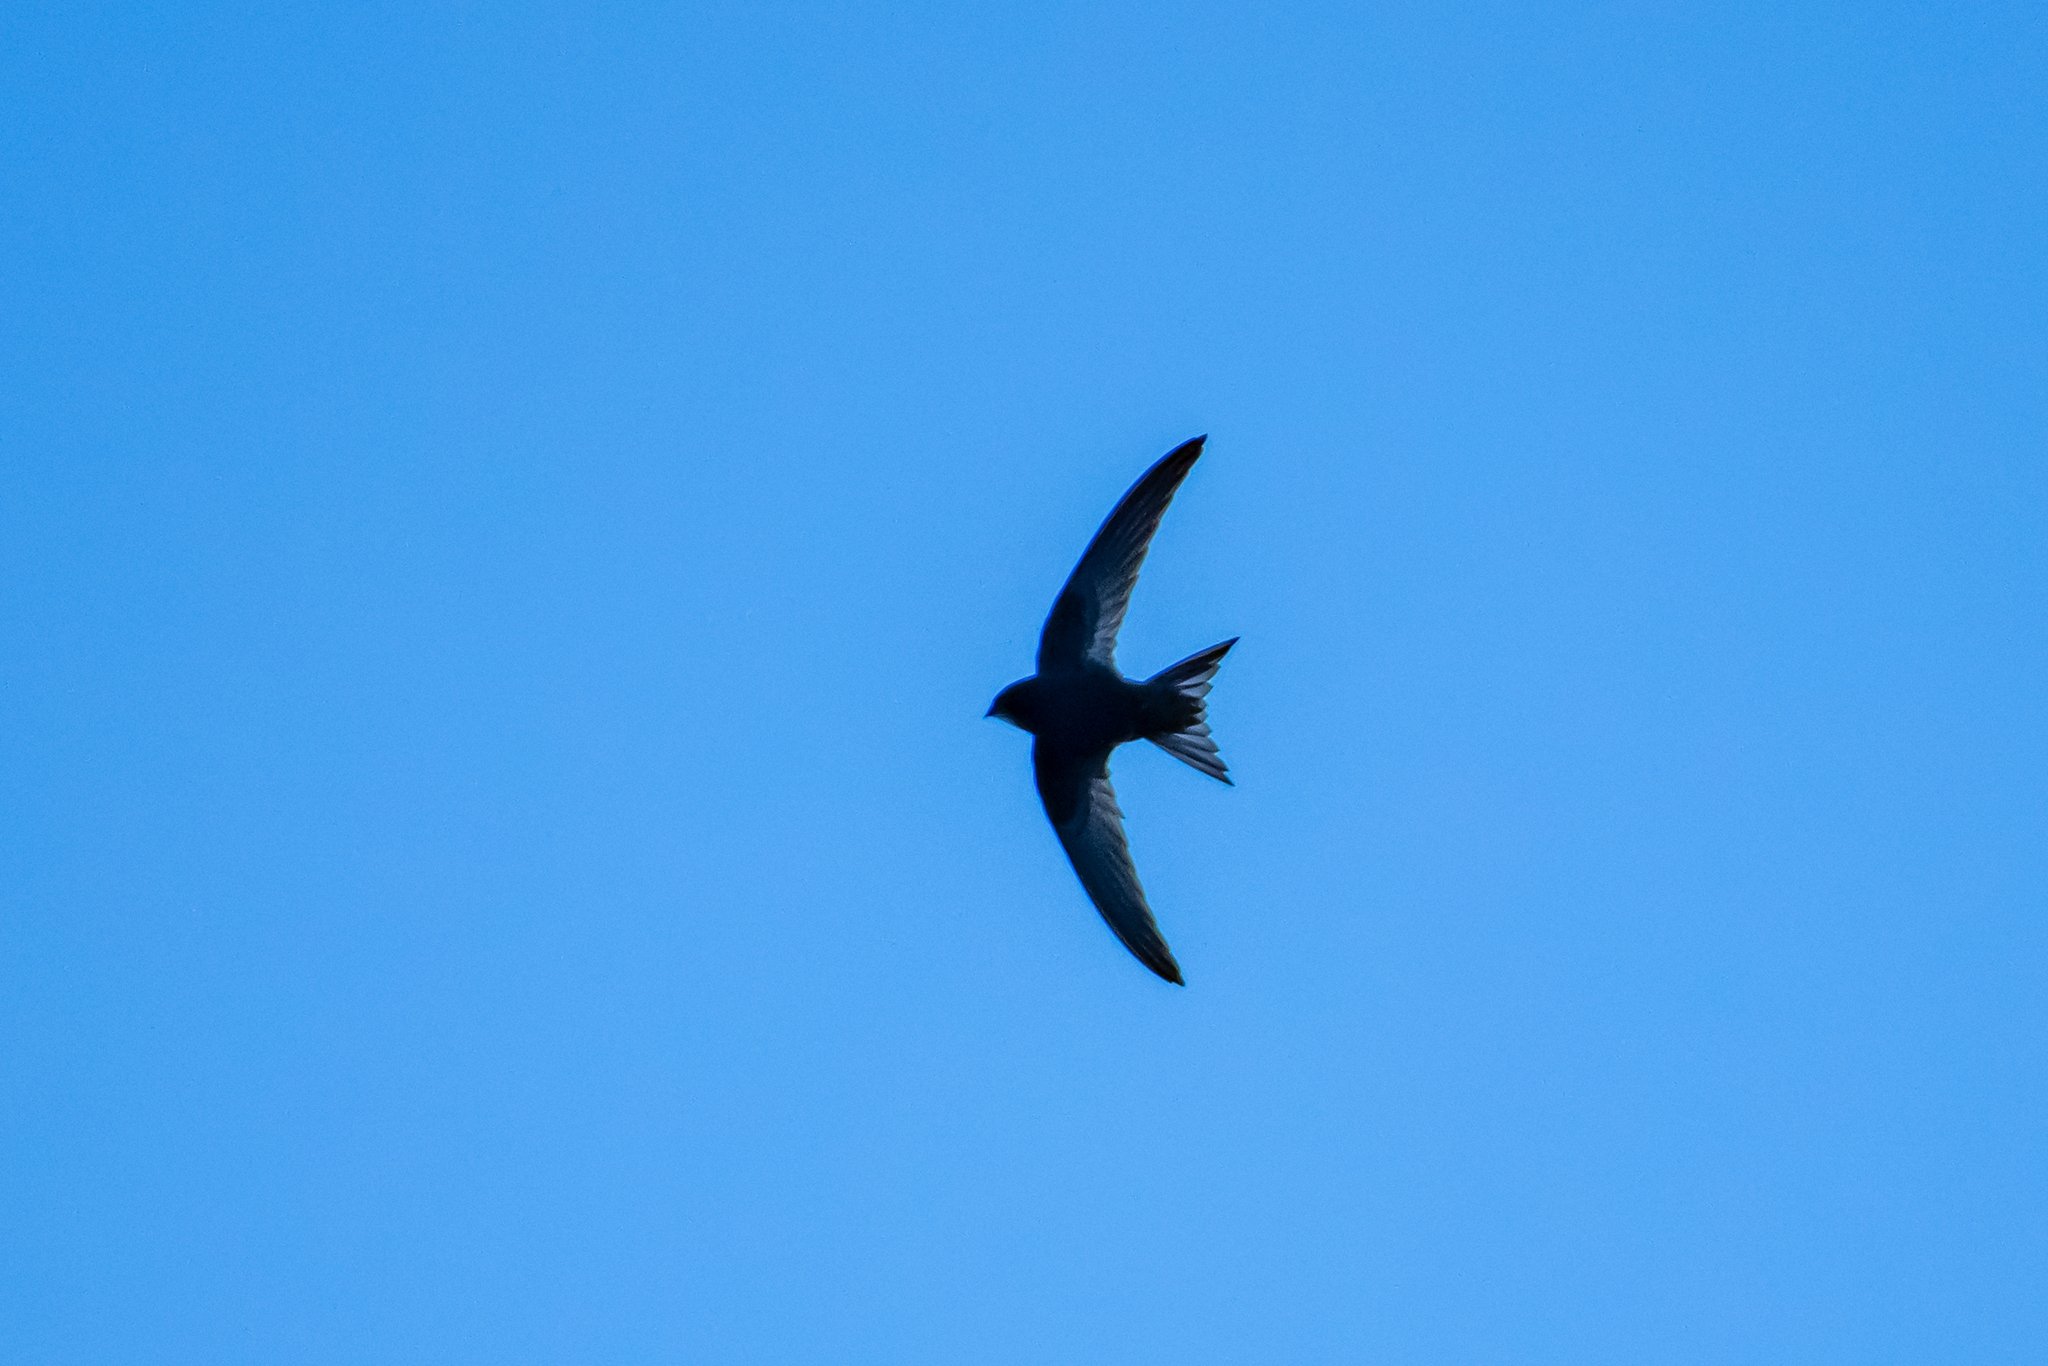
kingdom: Animalia
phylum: Chordata
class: Aves
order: Apodiformes
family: Apodidae
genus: Apus
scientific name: Apus apus
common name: Common swift
